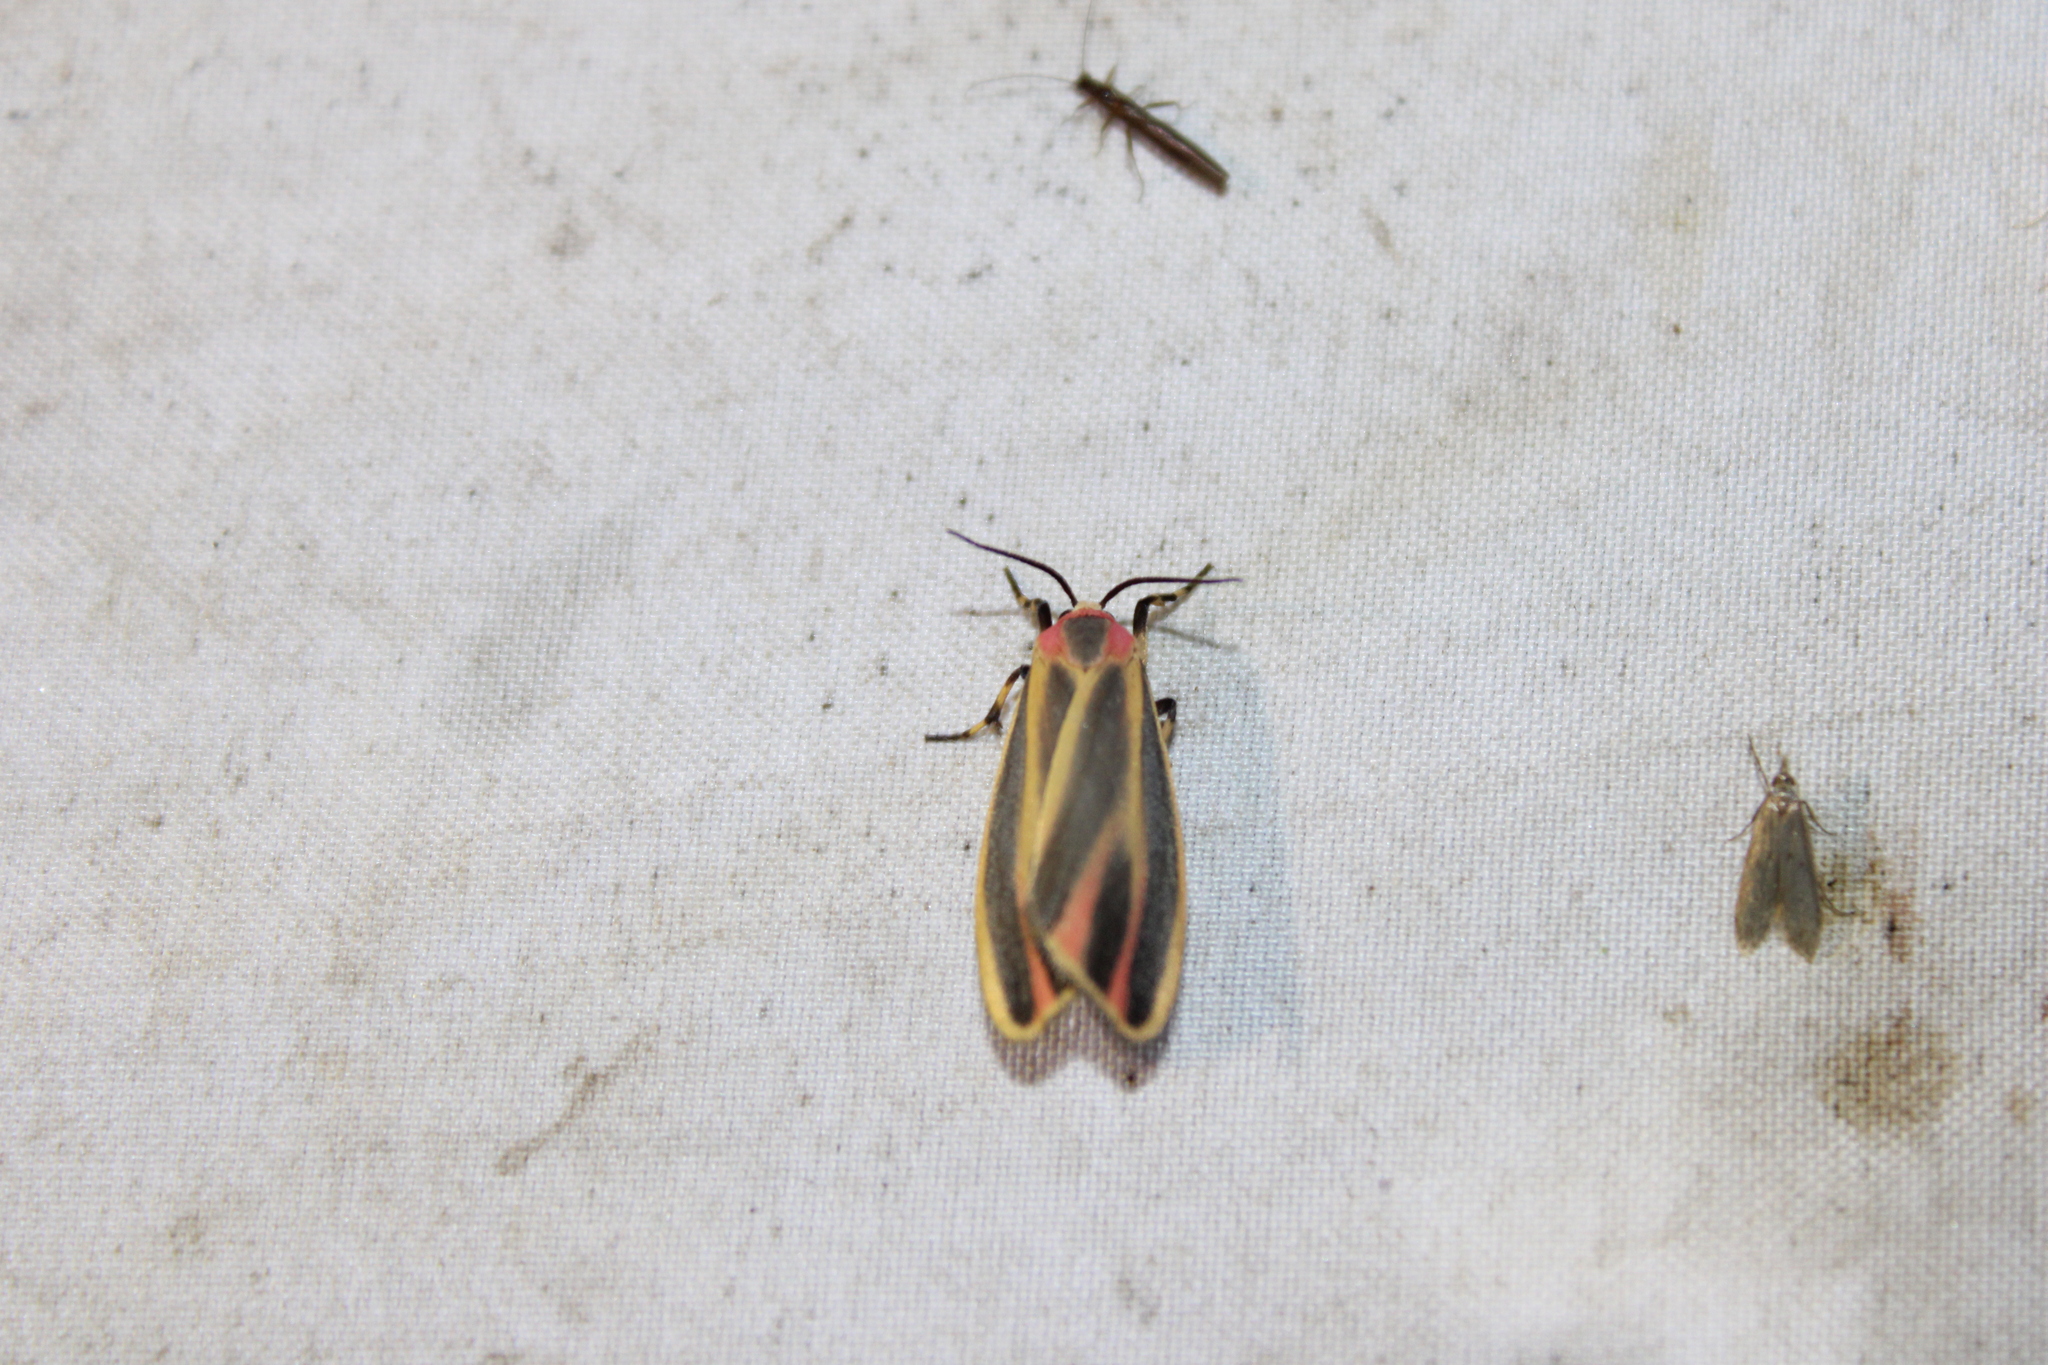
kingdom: Animalia
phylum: Arthropoda
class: Insecta
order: Lepidoptera
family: Erebidae
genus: Hypoprepia
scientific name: Hypoprepia fucosa
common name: Painted lichen moth
